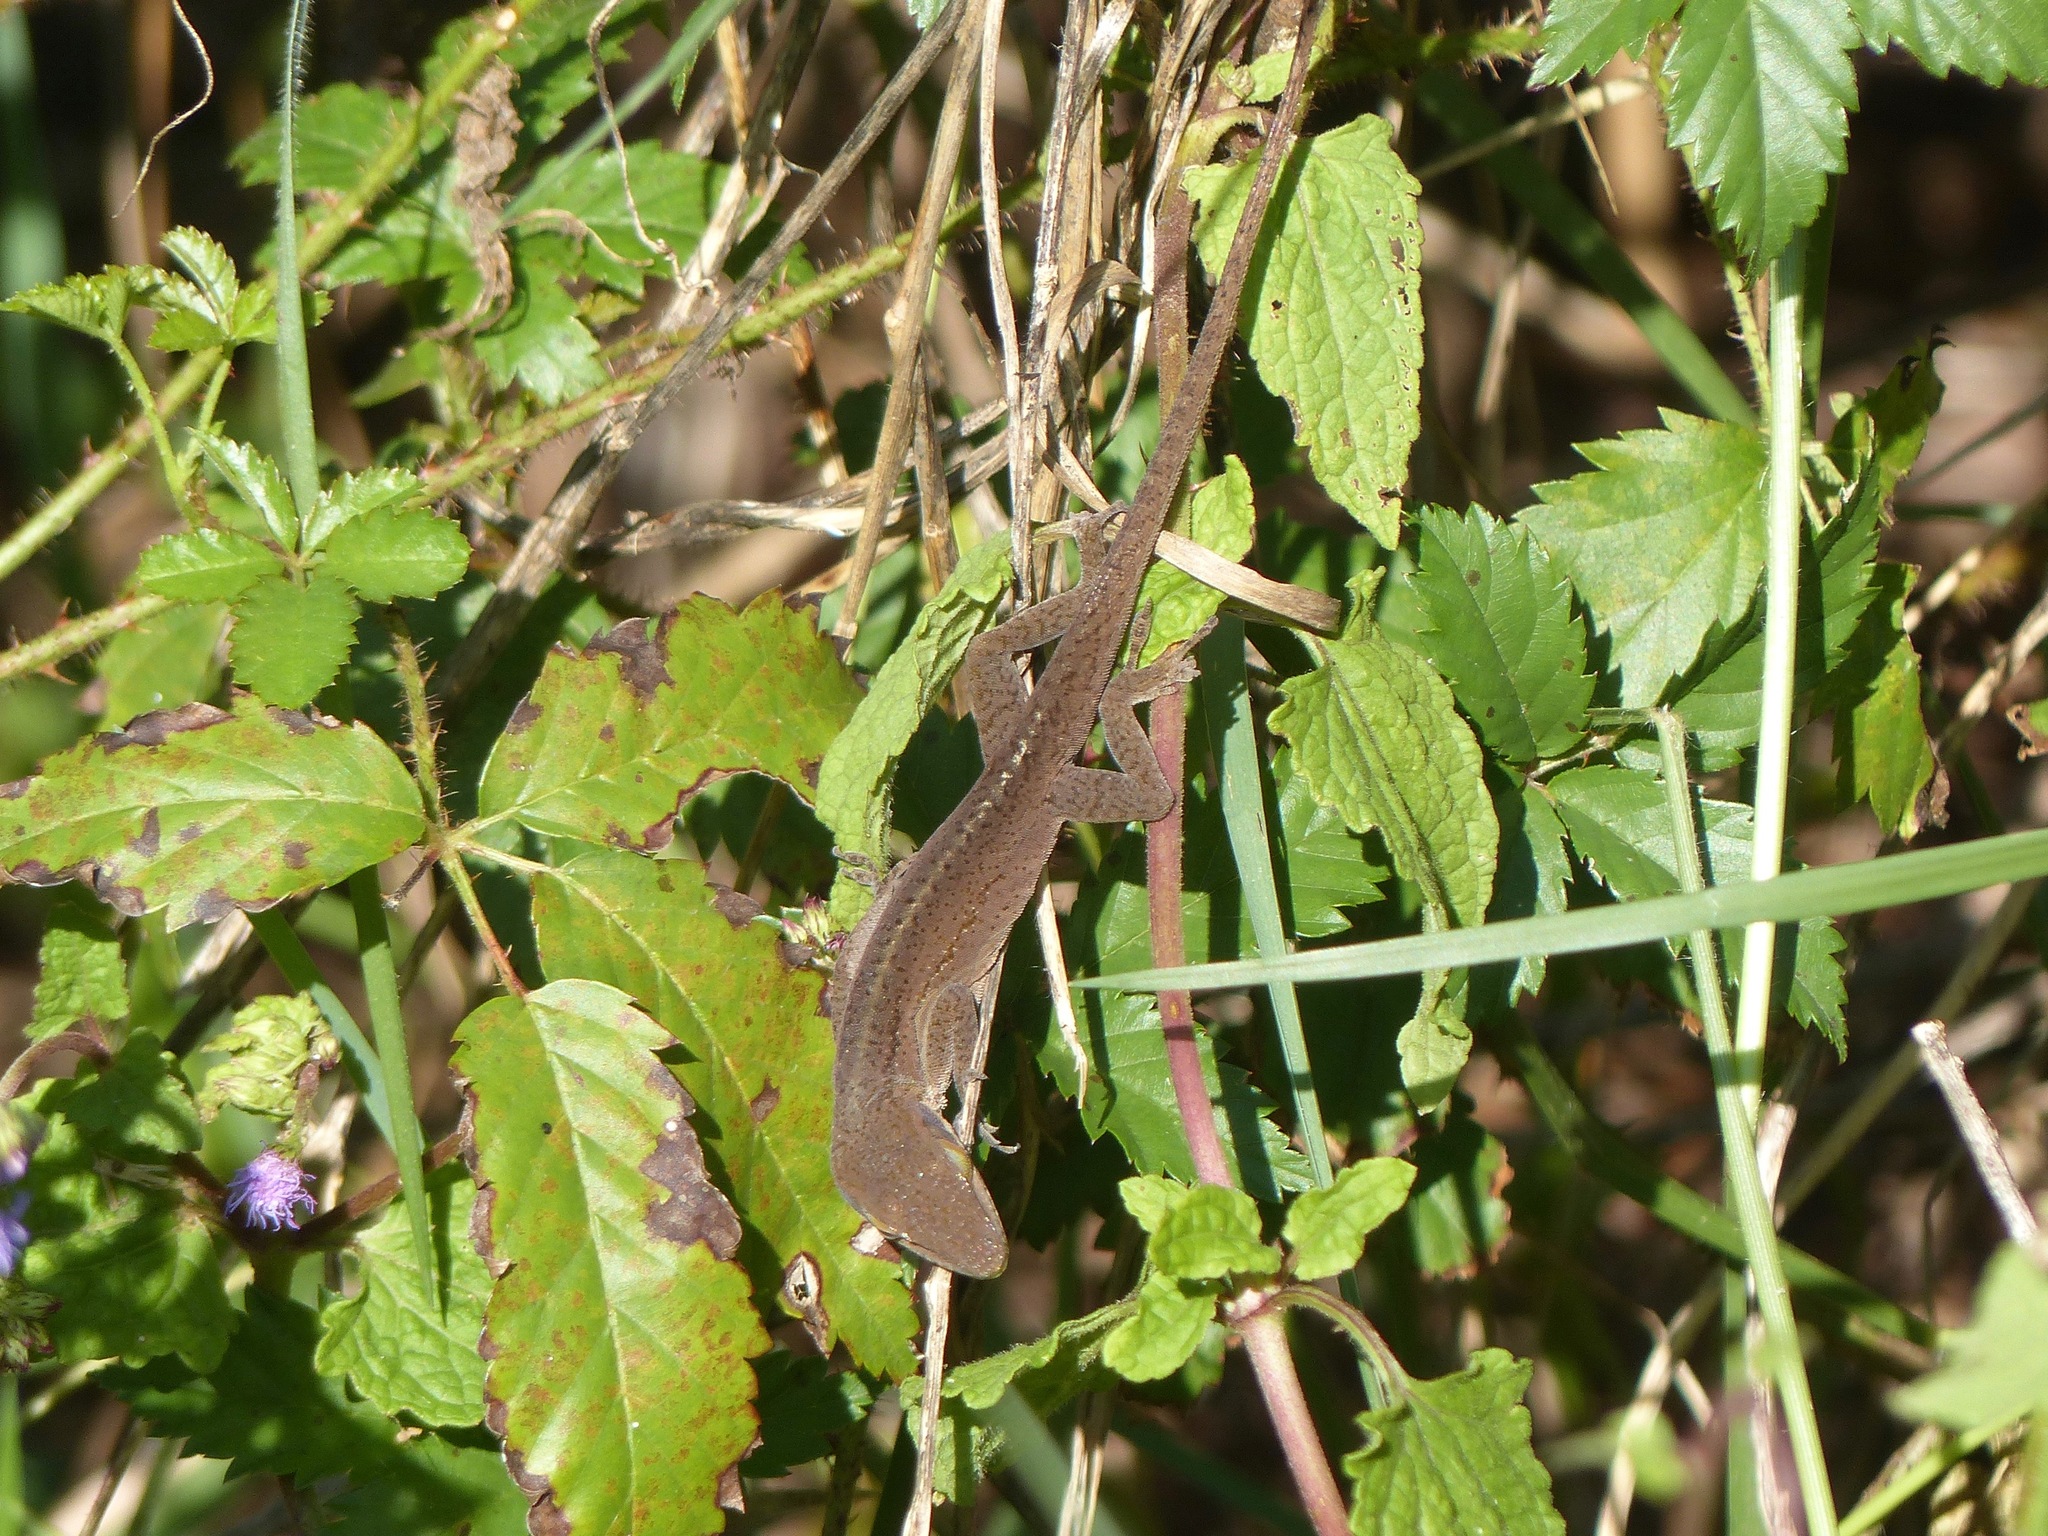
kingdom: Animalia
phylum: Chordata
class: Squamata
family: Dactyloidae
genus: Anolis
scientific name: Anolis carolinensis
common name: Green anole
